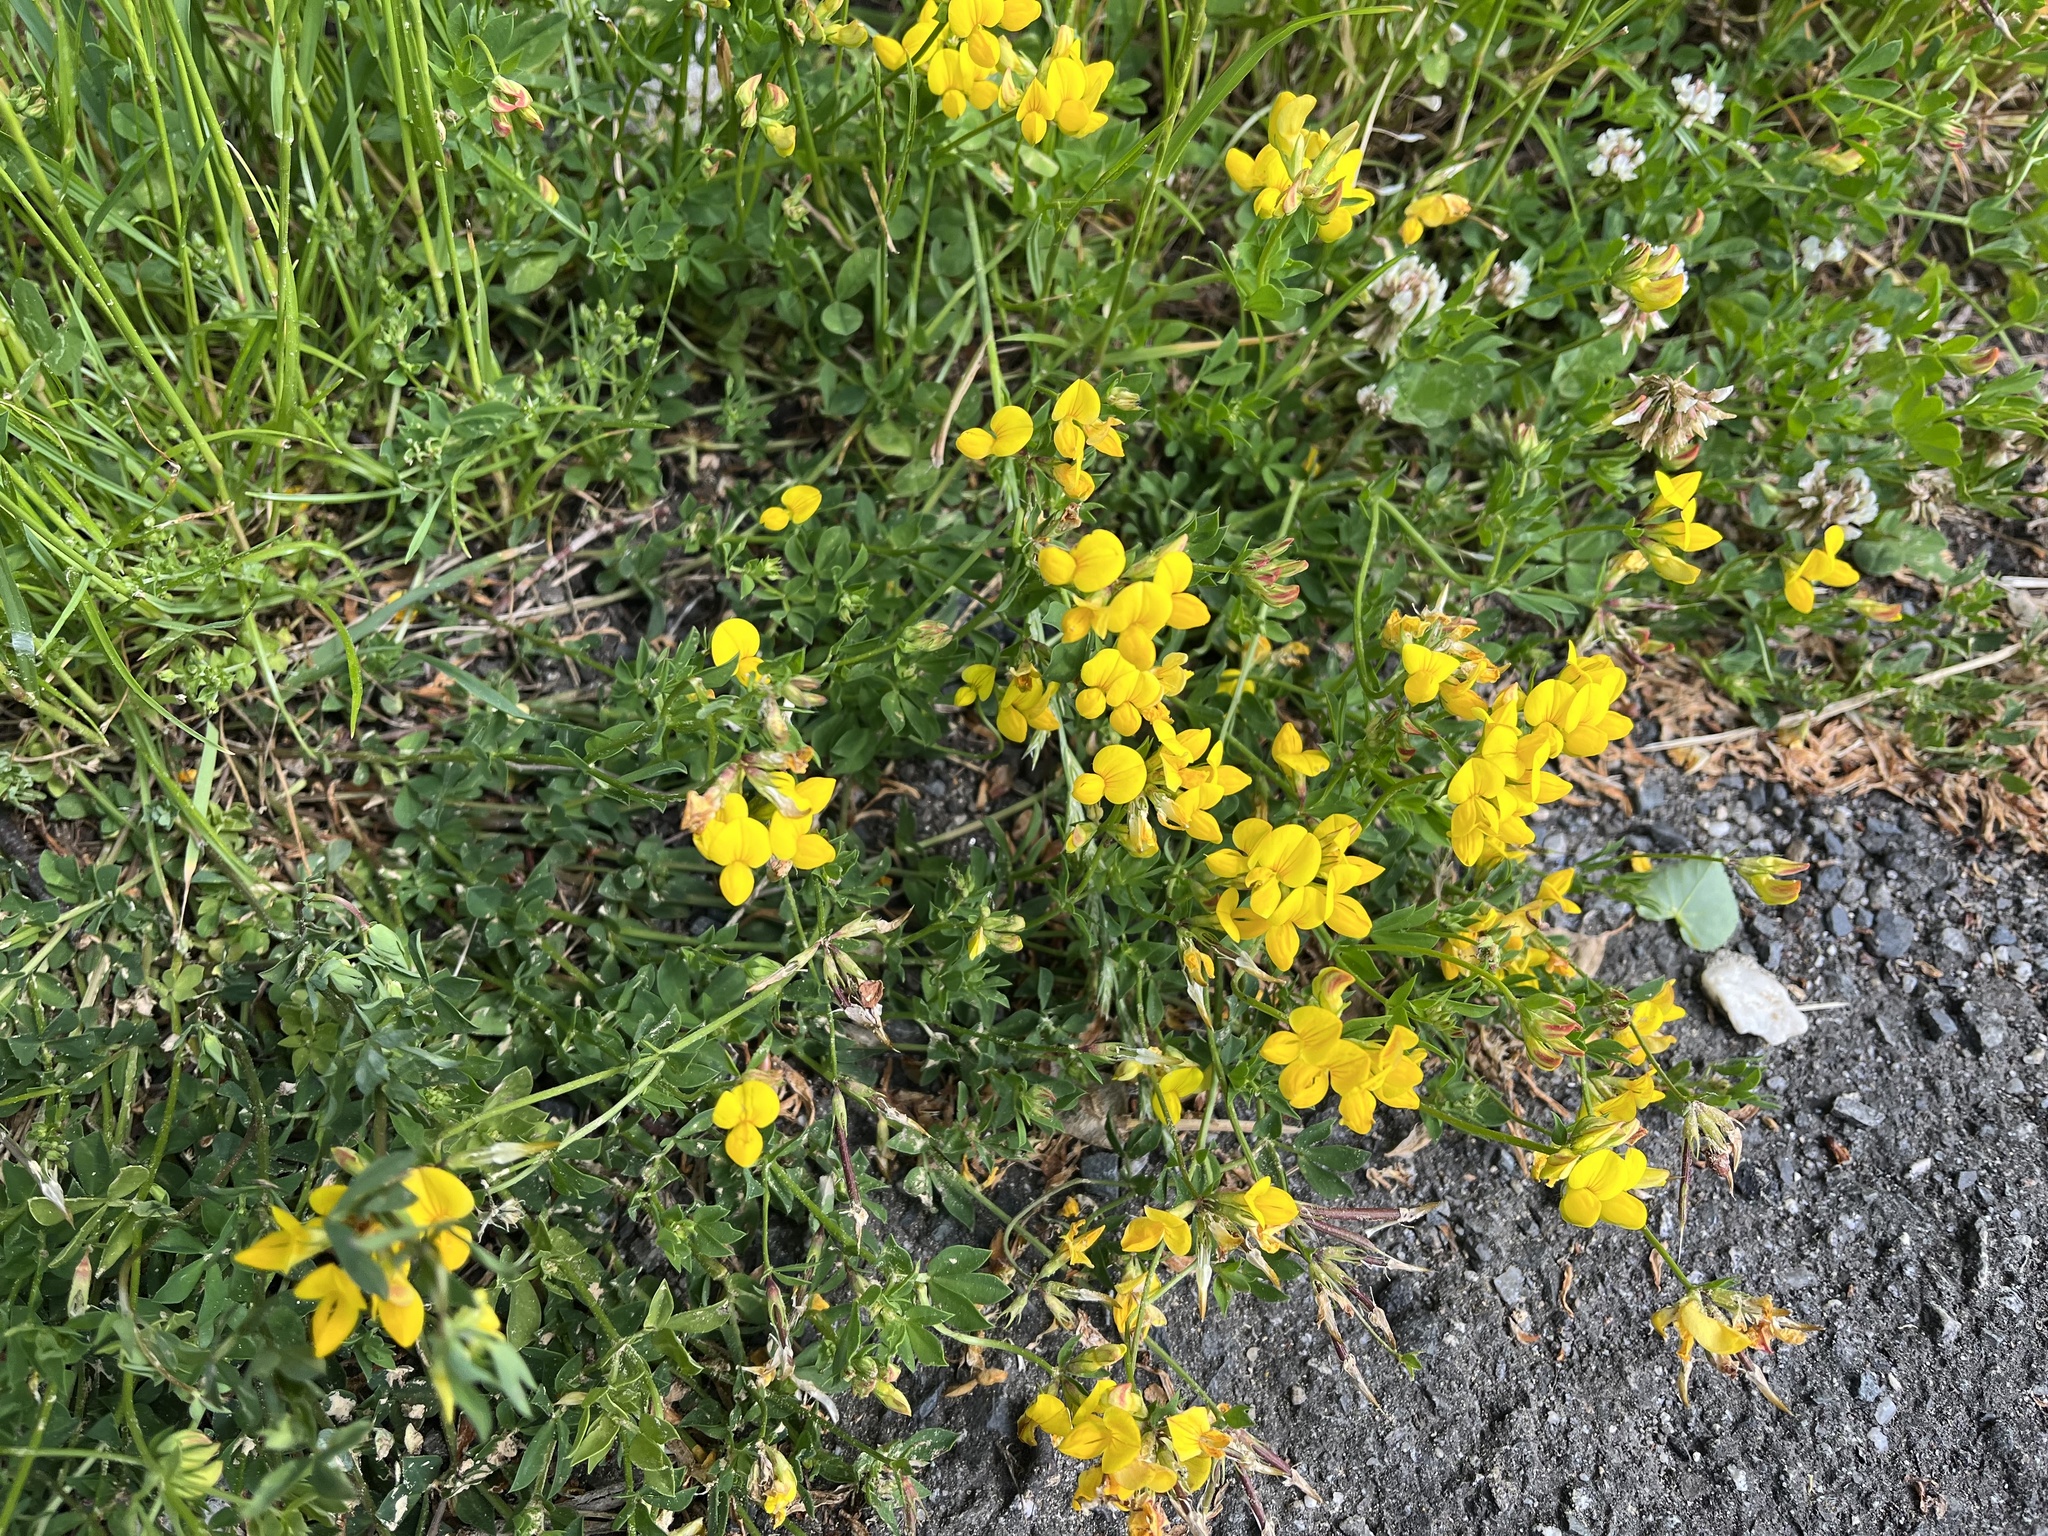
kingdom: Plantae
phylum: Tracheophyta
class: Magnoliopsida
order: Fabales
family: Fabaceae
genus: Lotus
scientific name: Lotus corniculatus
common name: Common bird's-foot-trefoil
